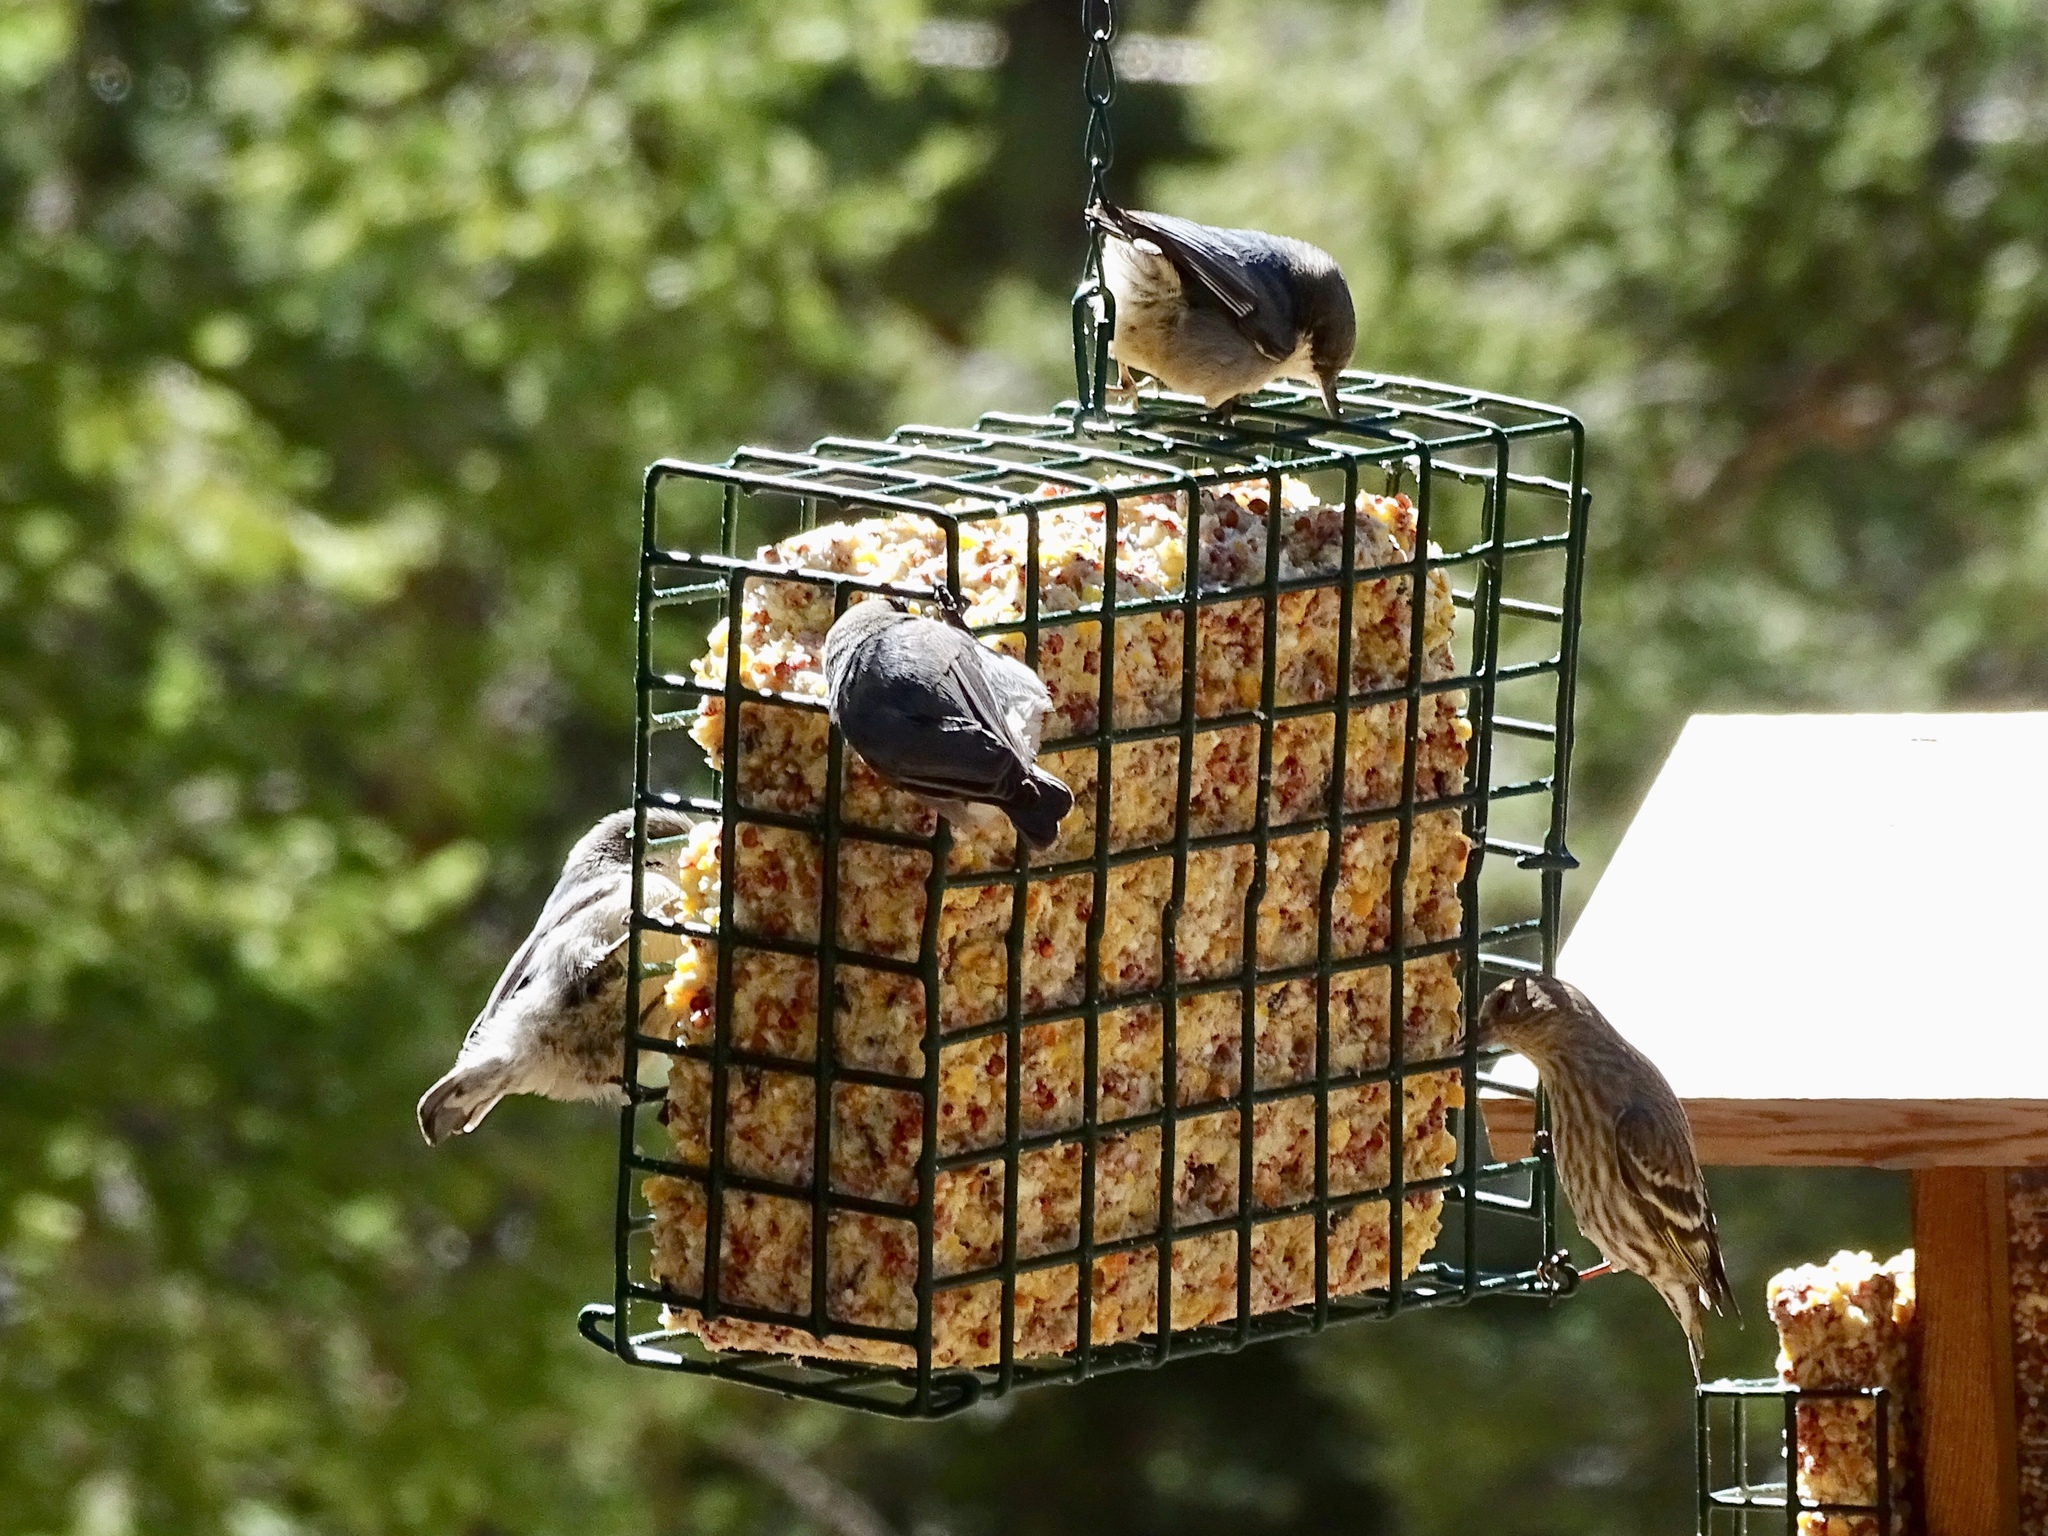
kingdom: Animalia
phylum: Chordata
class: Aves
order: Passeriformes
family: Sittidae
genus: Sitta
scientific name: Sitta pygmaea
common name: Pygmy nuthatch
